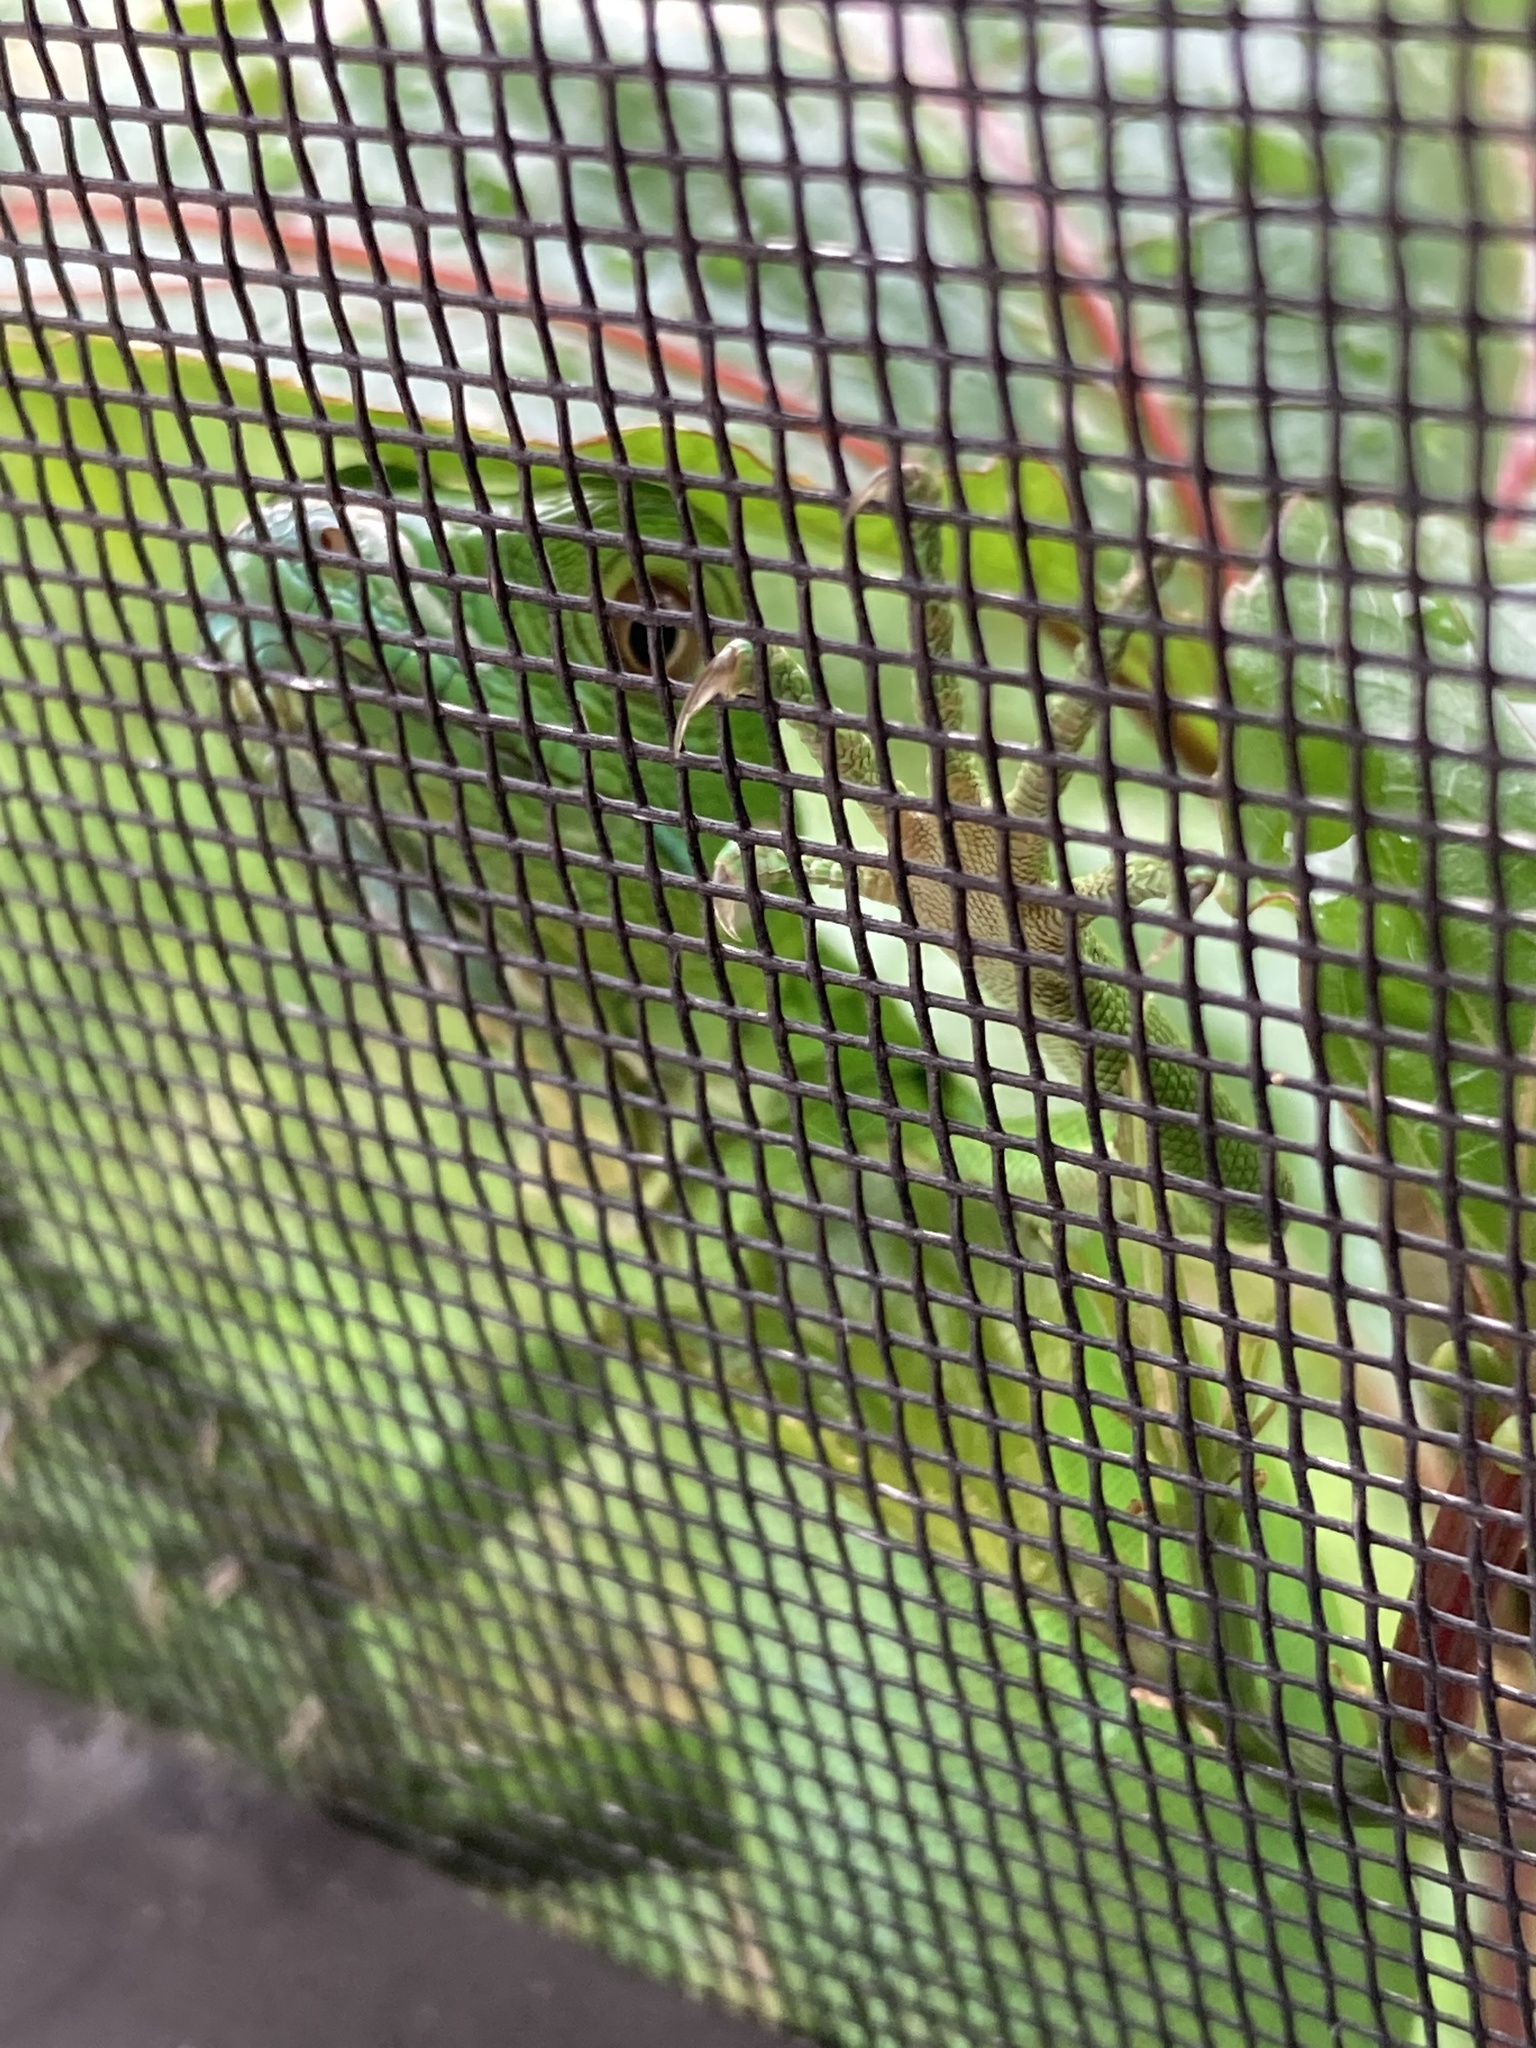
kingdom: Animalia
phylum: Chordata
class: Squamata
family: Iguanidae
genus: Iguana
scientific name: Iguana iguana
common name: Green iguana
